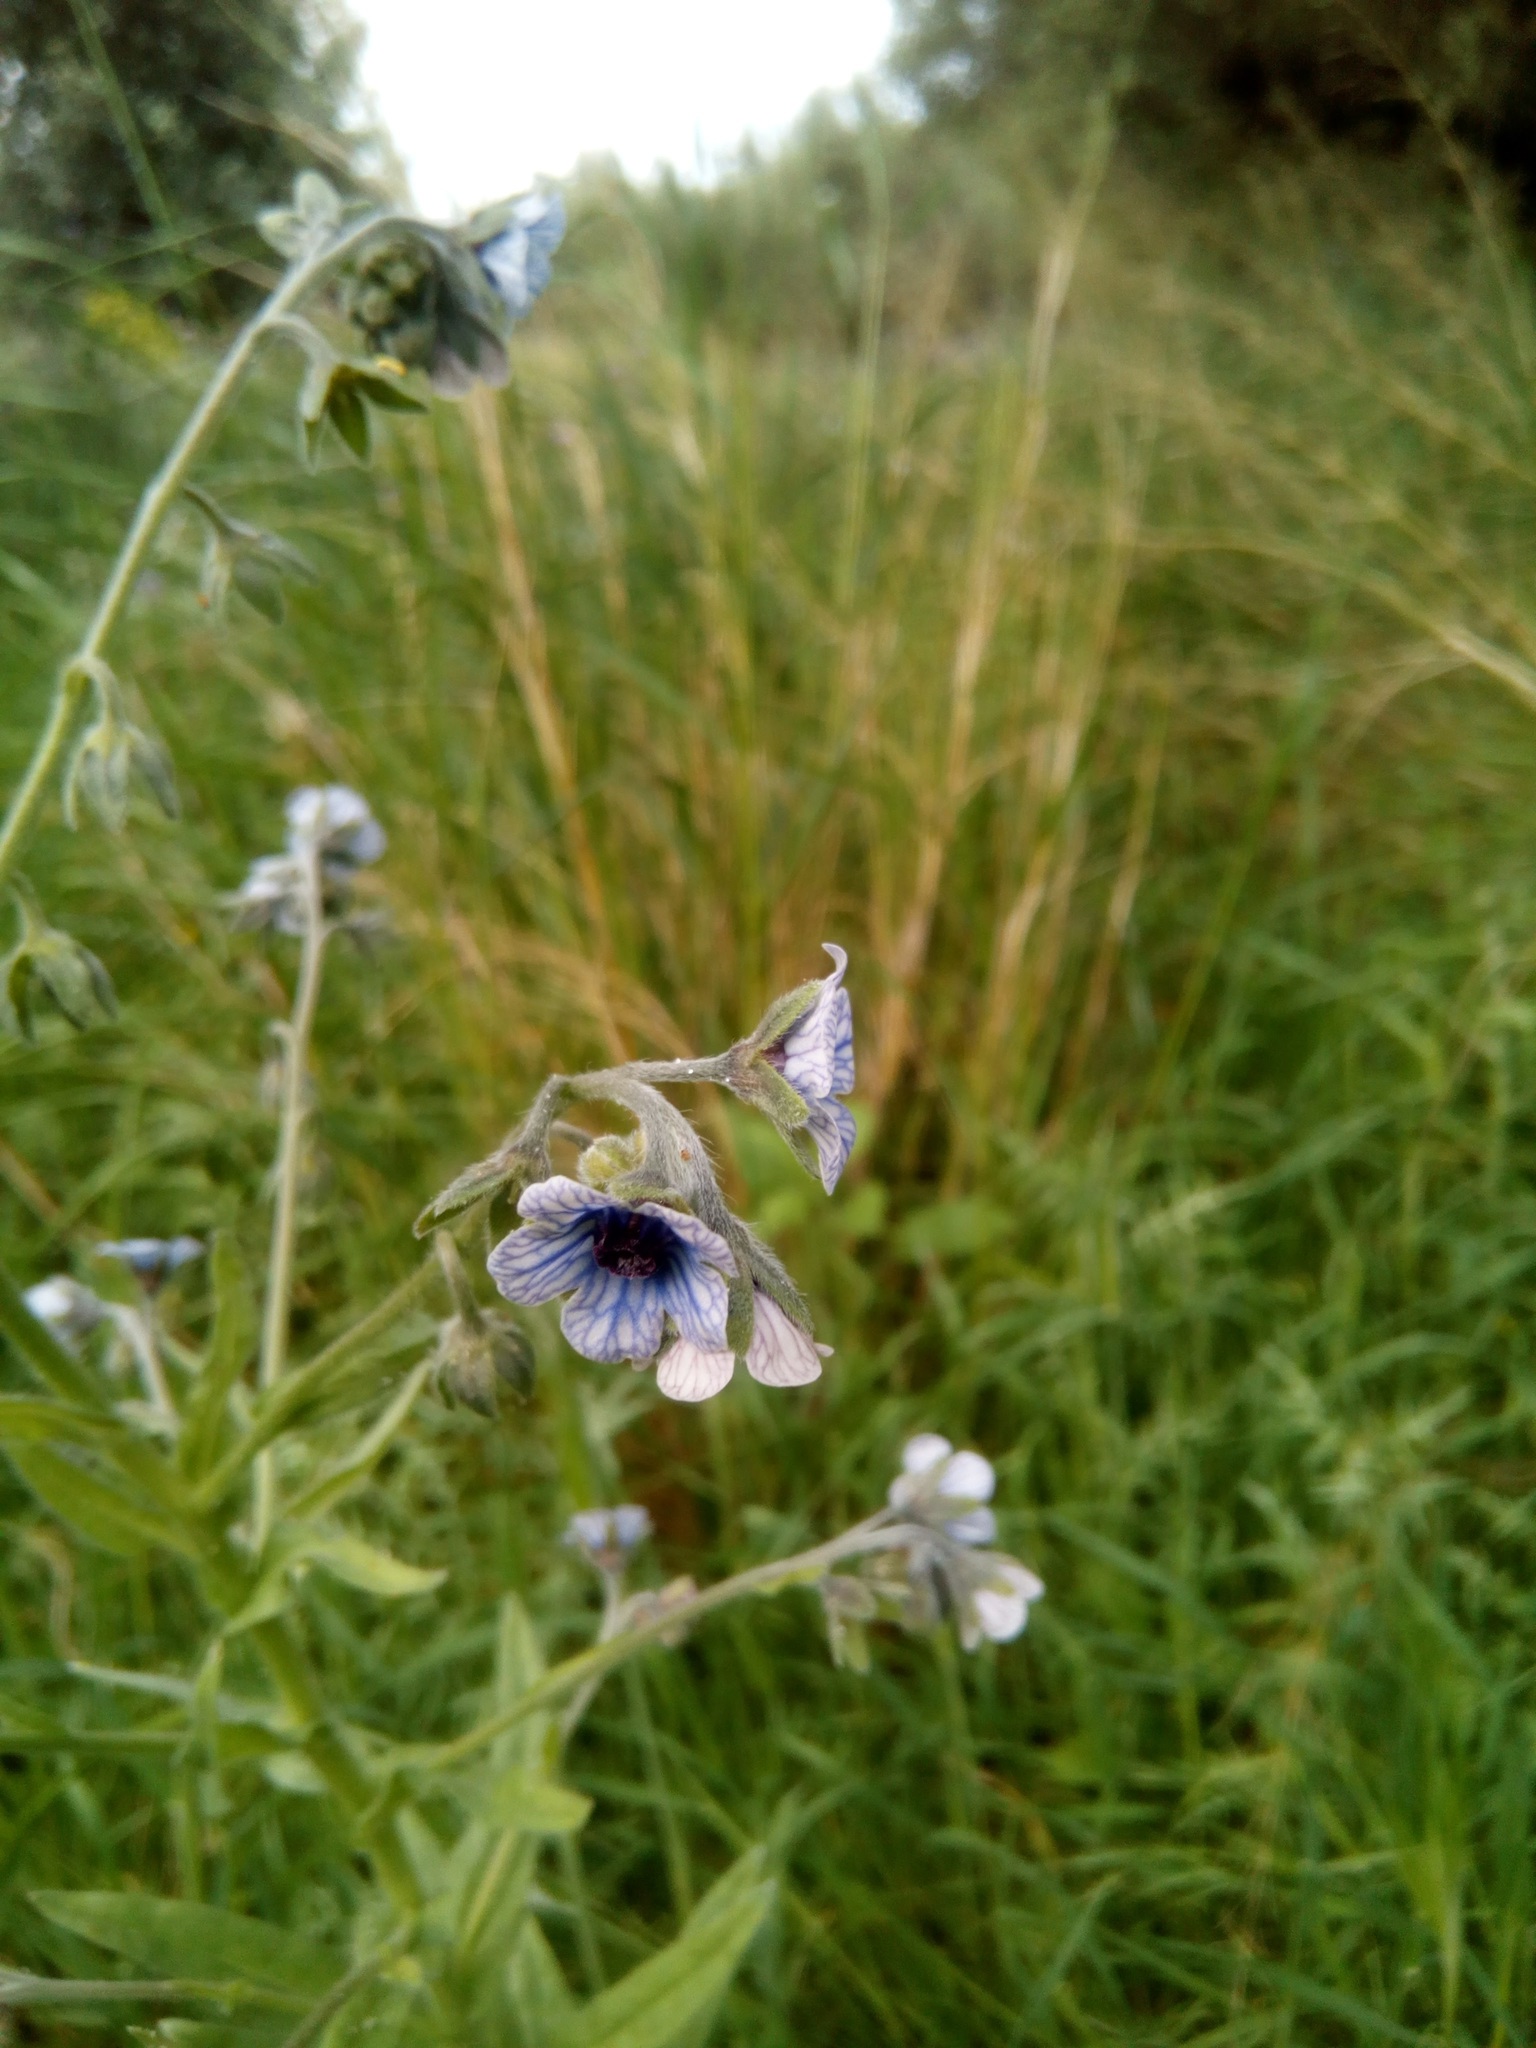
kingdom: Plantae
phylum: Tracheophyta
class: Magnoliopsida
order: Boraginales
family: Boraginaceae
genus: Cynoglossum
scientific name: Cynoglossum creticum
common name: Blue hound's tongue
